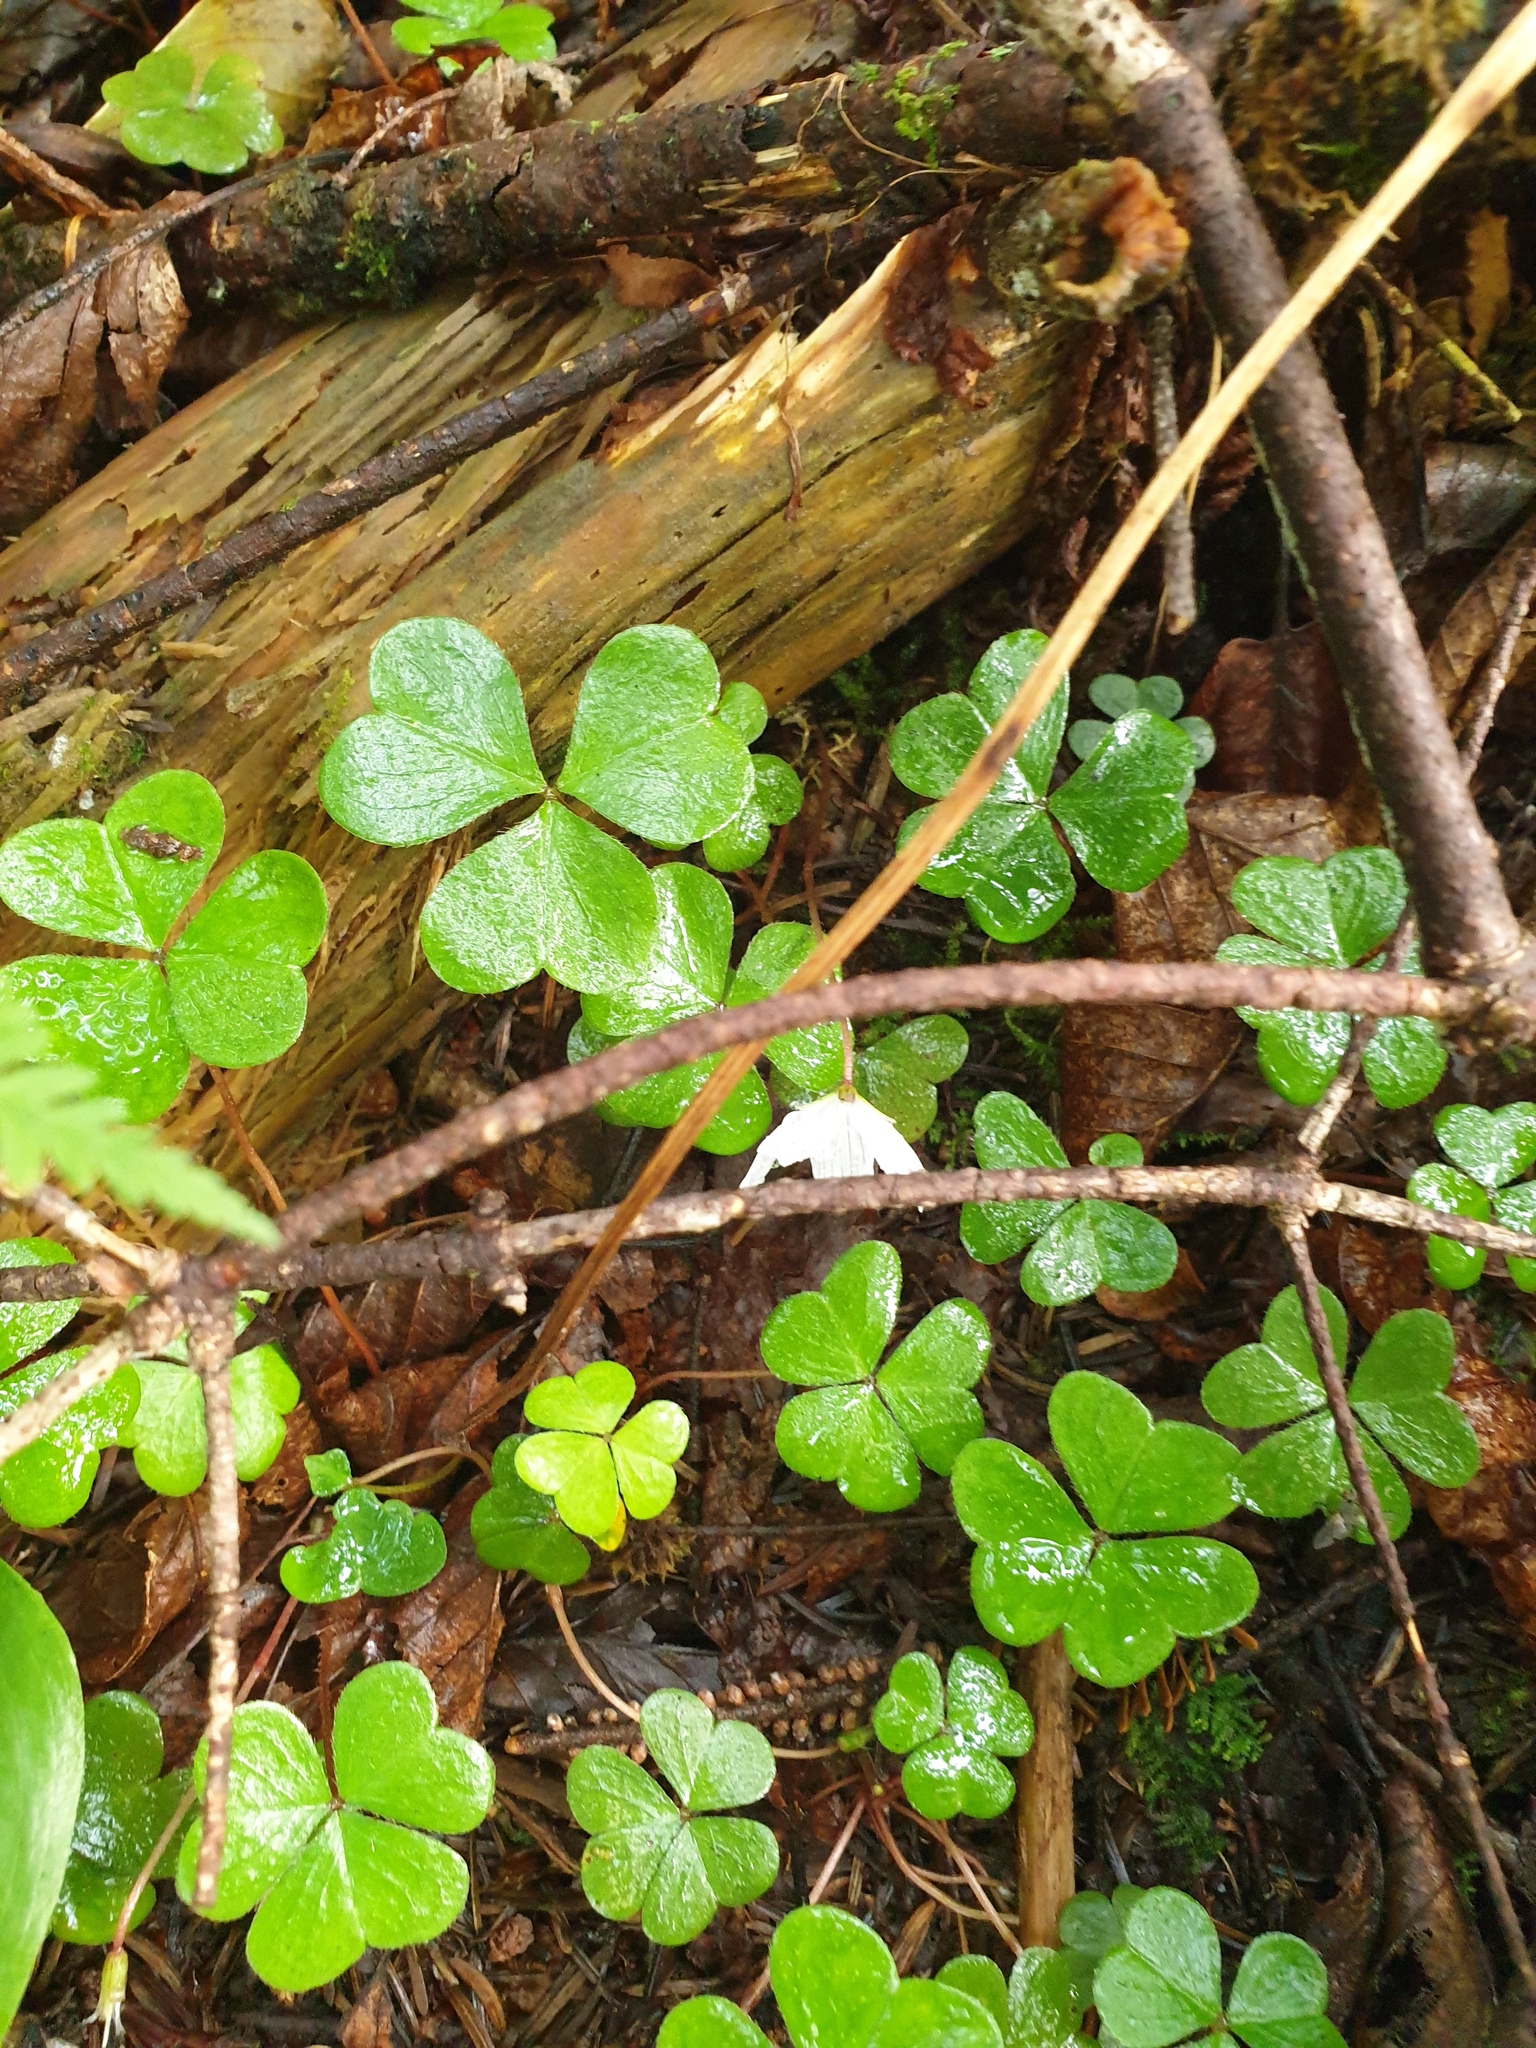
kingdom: Plantae
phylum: Tracheophyta
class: Magnoliopsida
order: Oxalidales
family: Oxalidaceae
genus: Oxalis
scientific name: Oxalis montana
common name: American wood-sorrel
